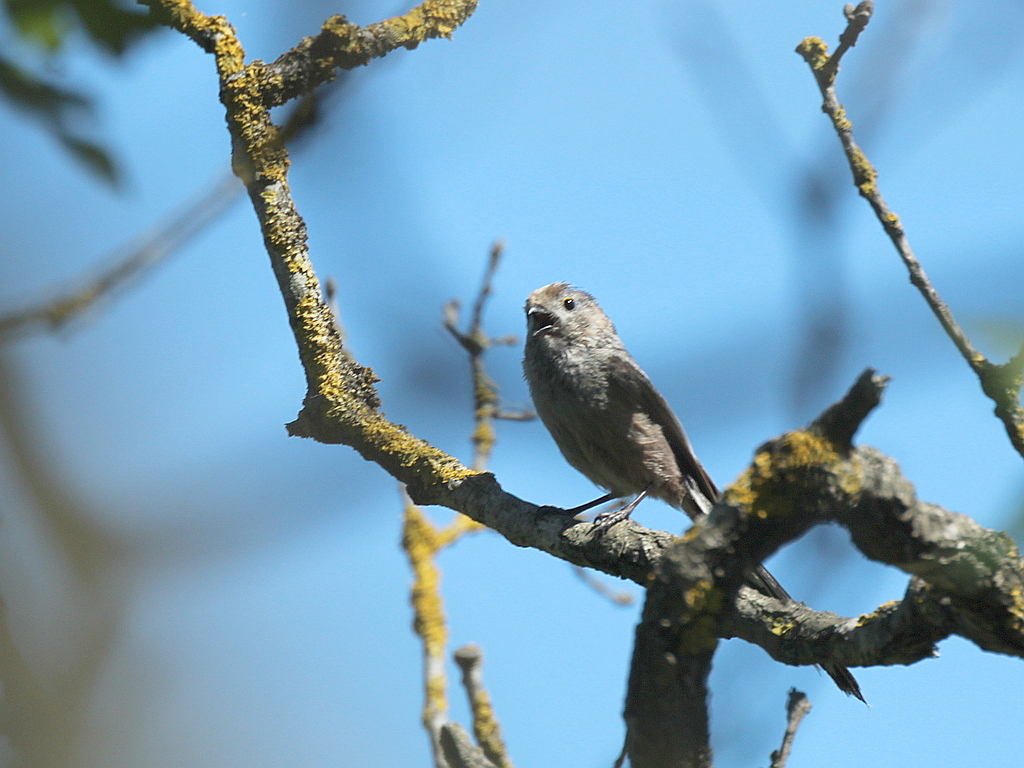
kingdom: Animalia
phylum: Chordata
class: Aves
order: Passeriformes
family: Aegithalidae
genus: Aegithalos
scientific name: Aegithalos caudatus
